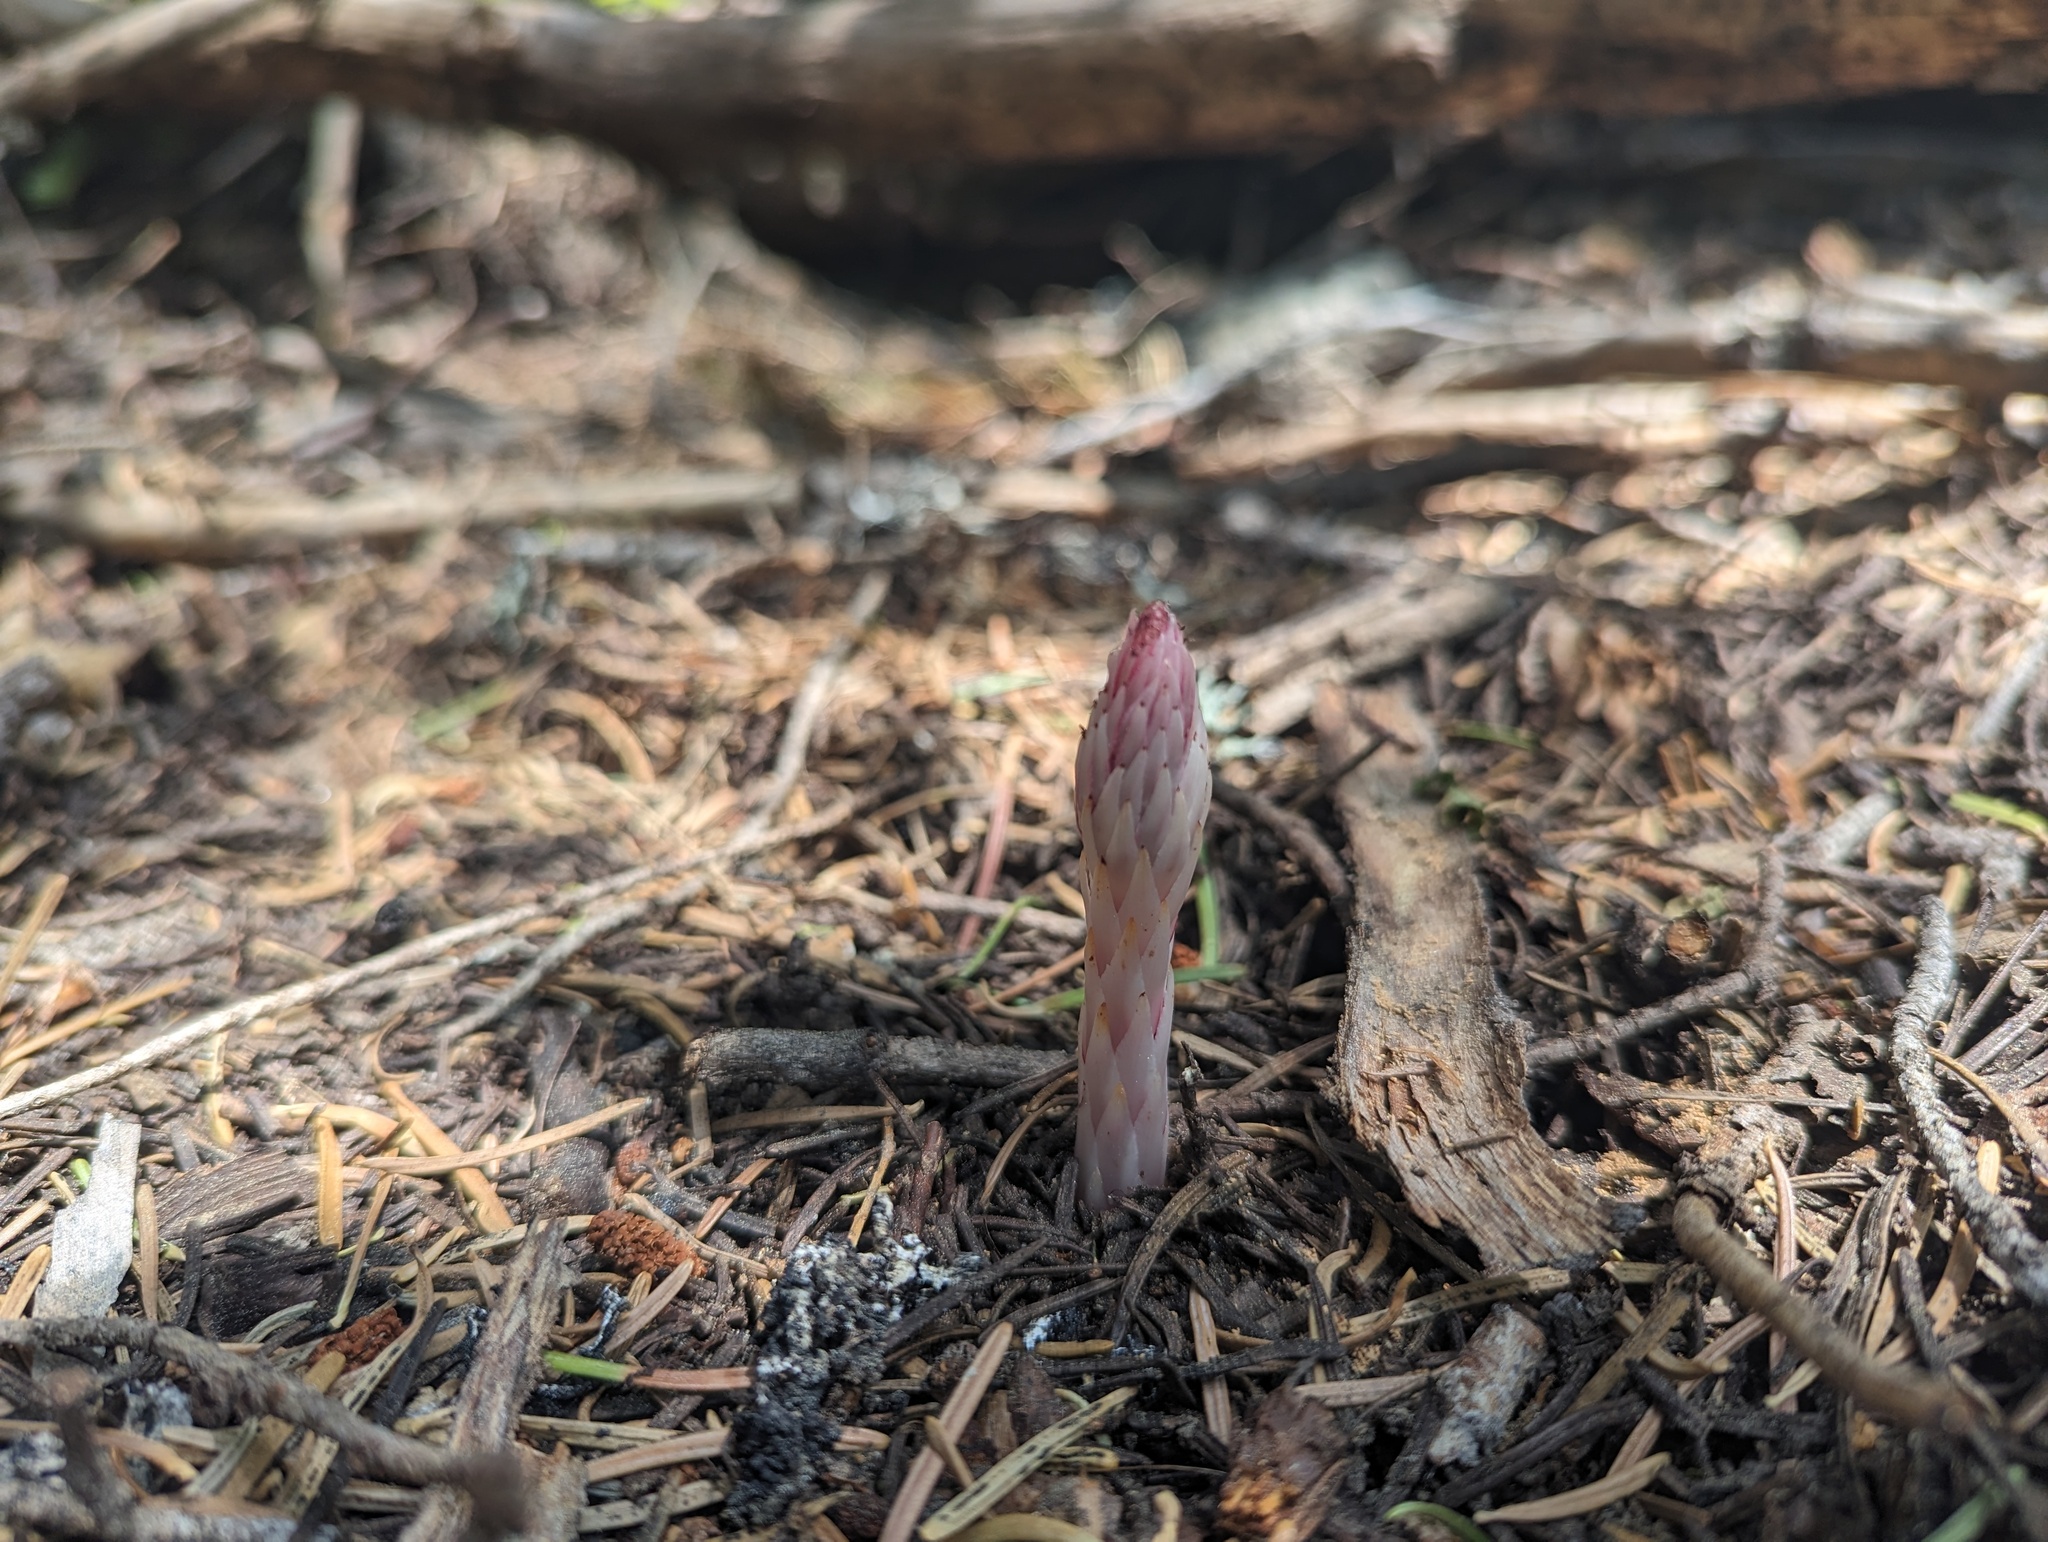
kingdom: Plantae
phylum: Tracheophyta
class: Magnoliopsida
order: Ericales
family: Ericaceae
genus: Allotropa
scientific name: Allotropa virgata
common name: Candy-striped allotropa
